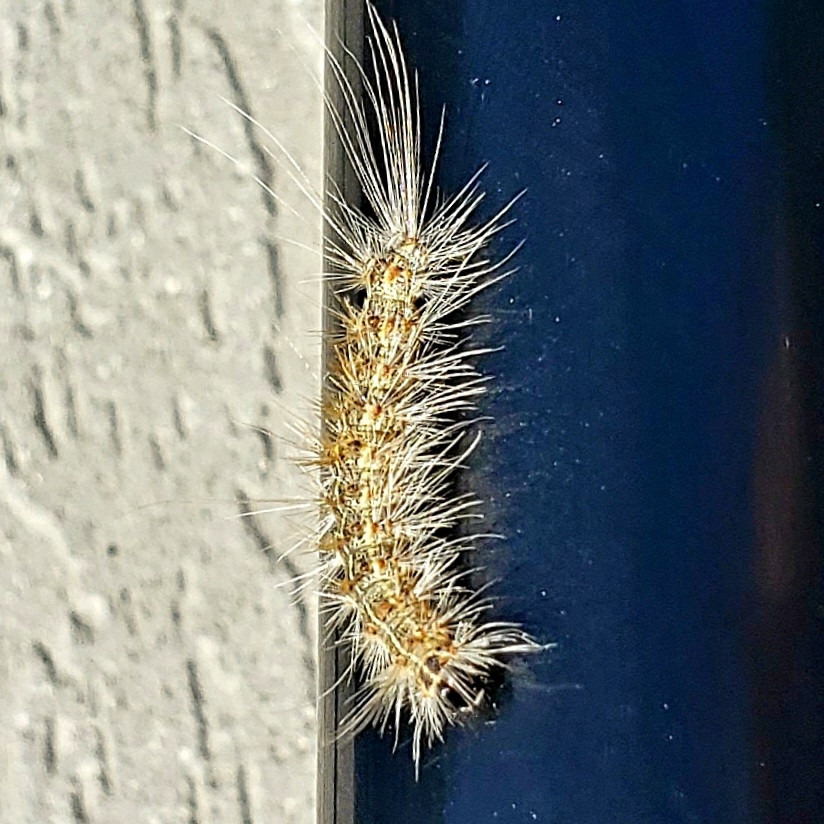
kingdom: Animalia
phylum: Arthropoda
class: Insecta
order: Lepidoptera
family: Erebidae
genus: Hyphantria
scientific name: Hyphantria cunea
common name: American white moth
